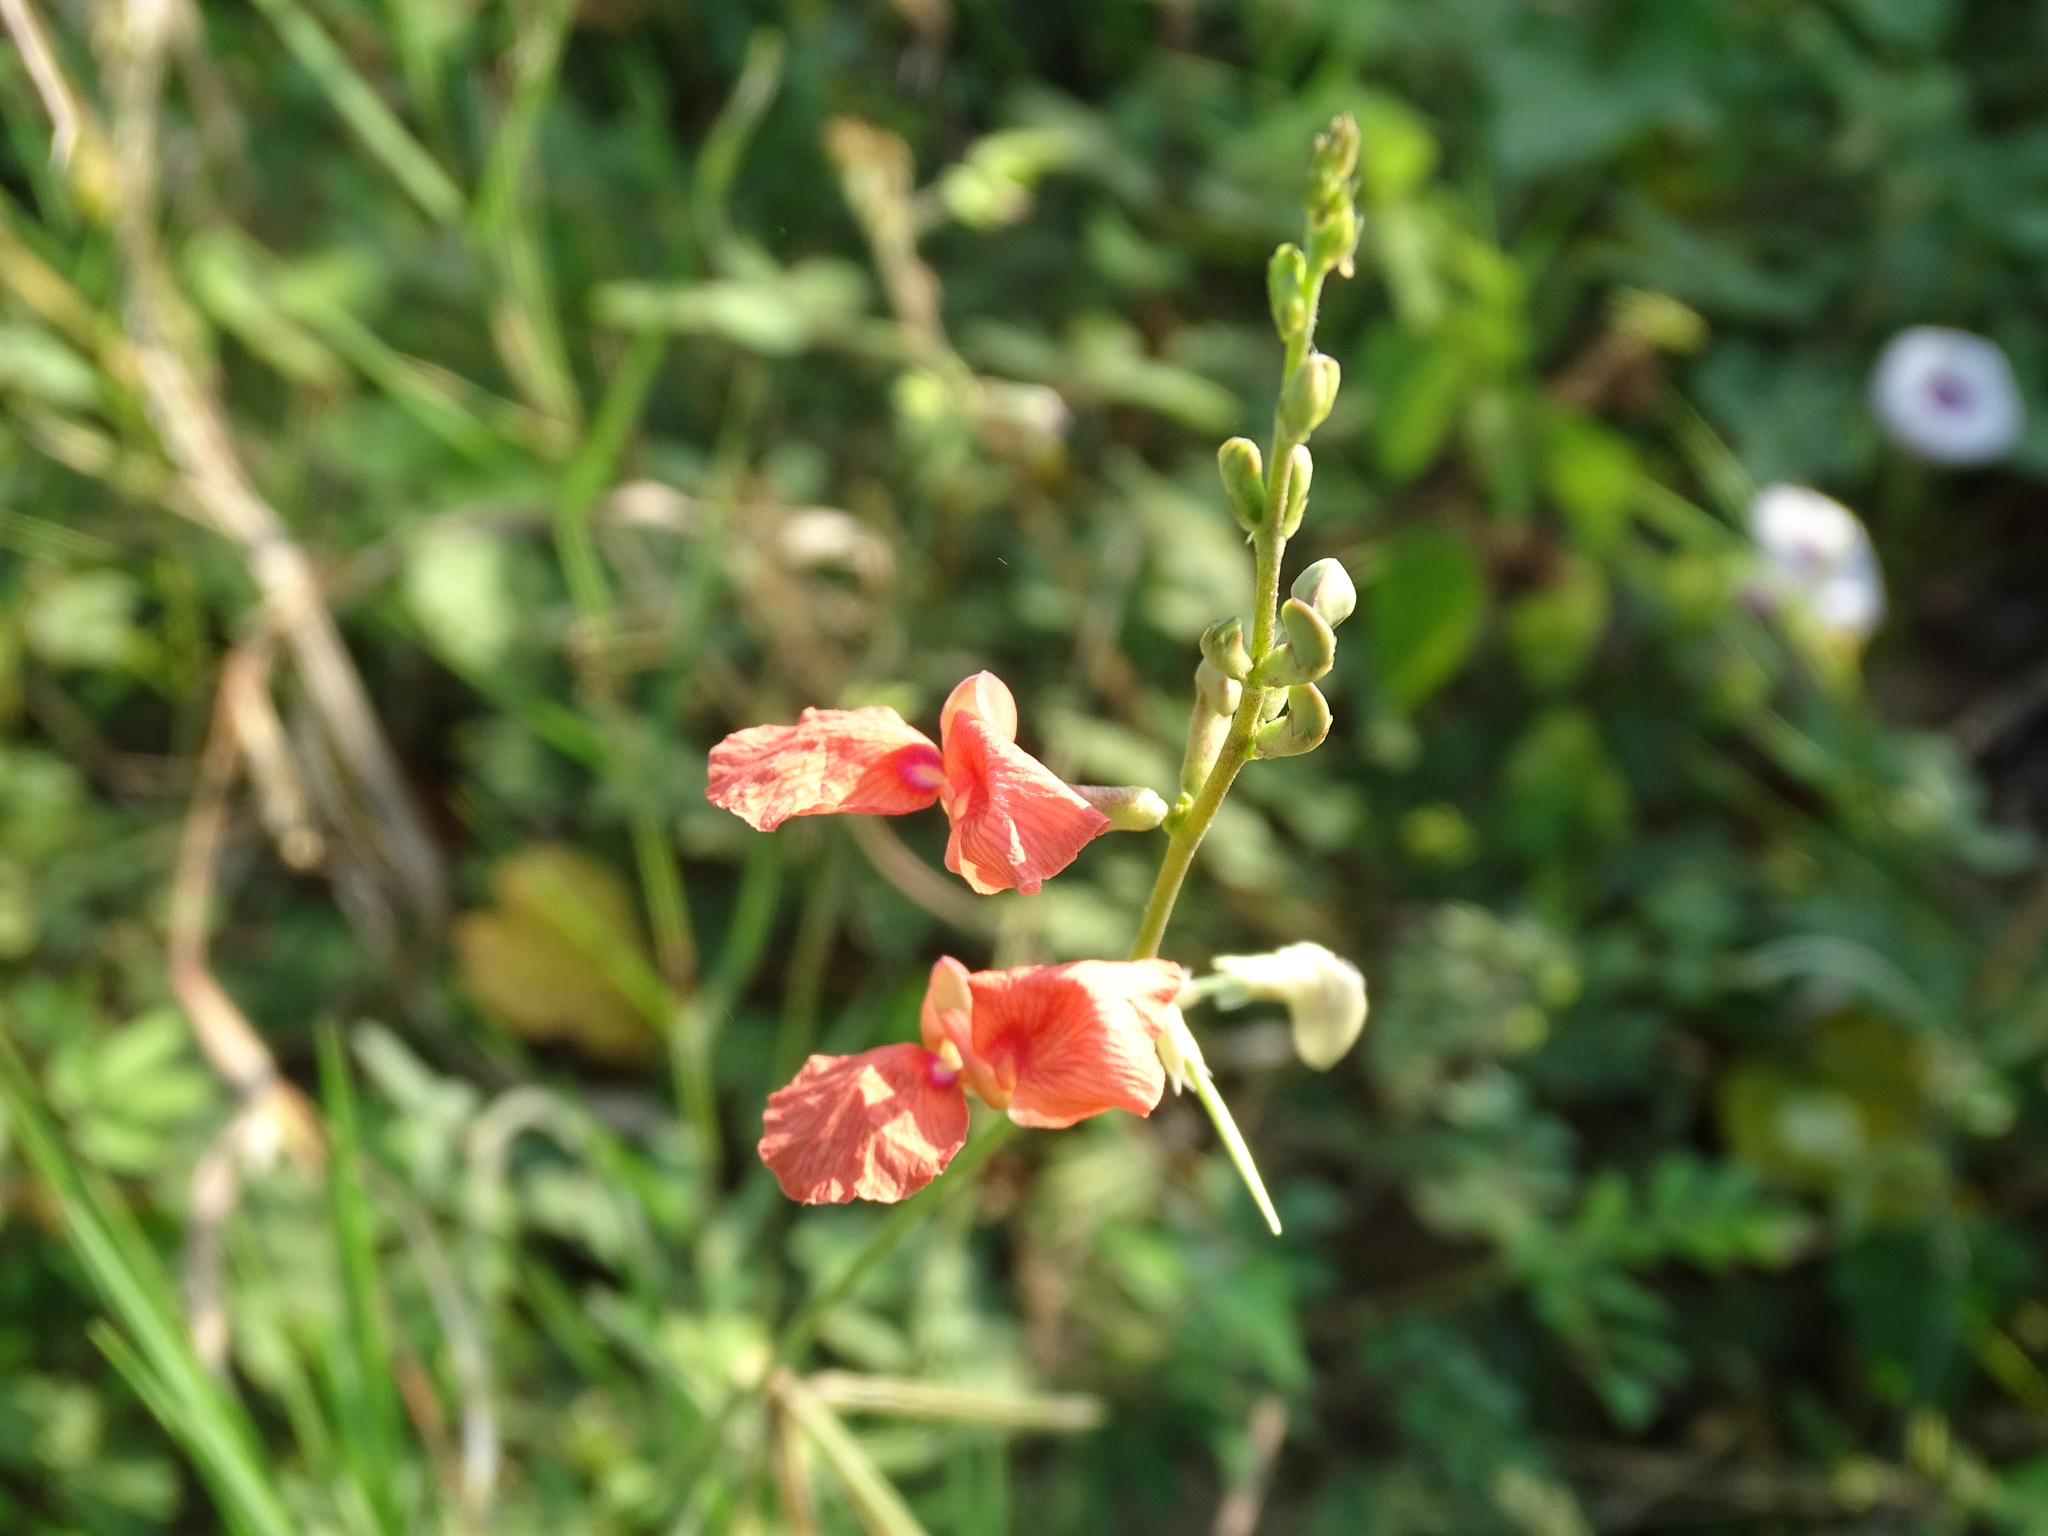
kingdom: Plantae
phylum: Tracheophyta
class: Magnoliopsida
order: Fabales
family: Fabaceae
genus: Macroptilium
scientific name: Macroptilium lathyroides
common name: Wild bushbean
